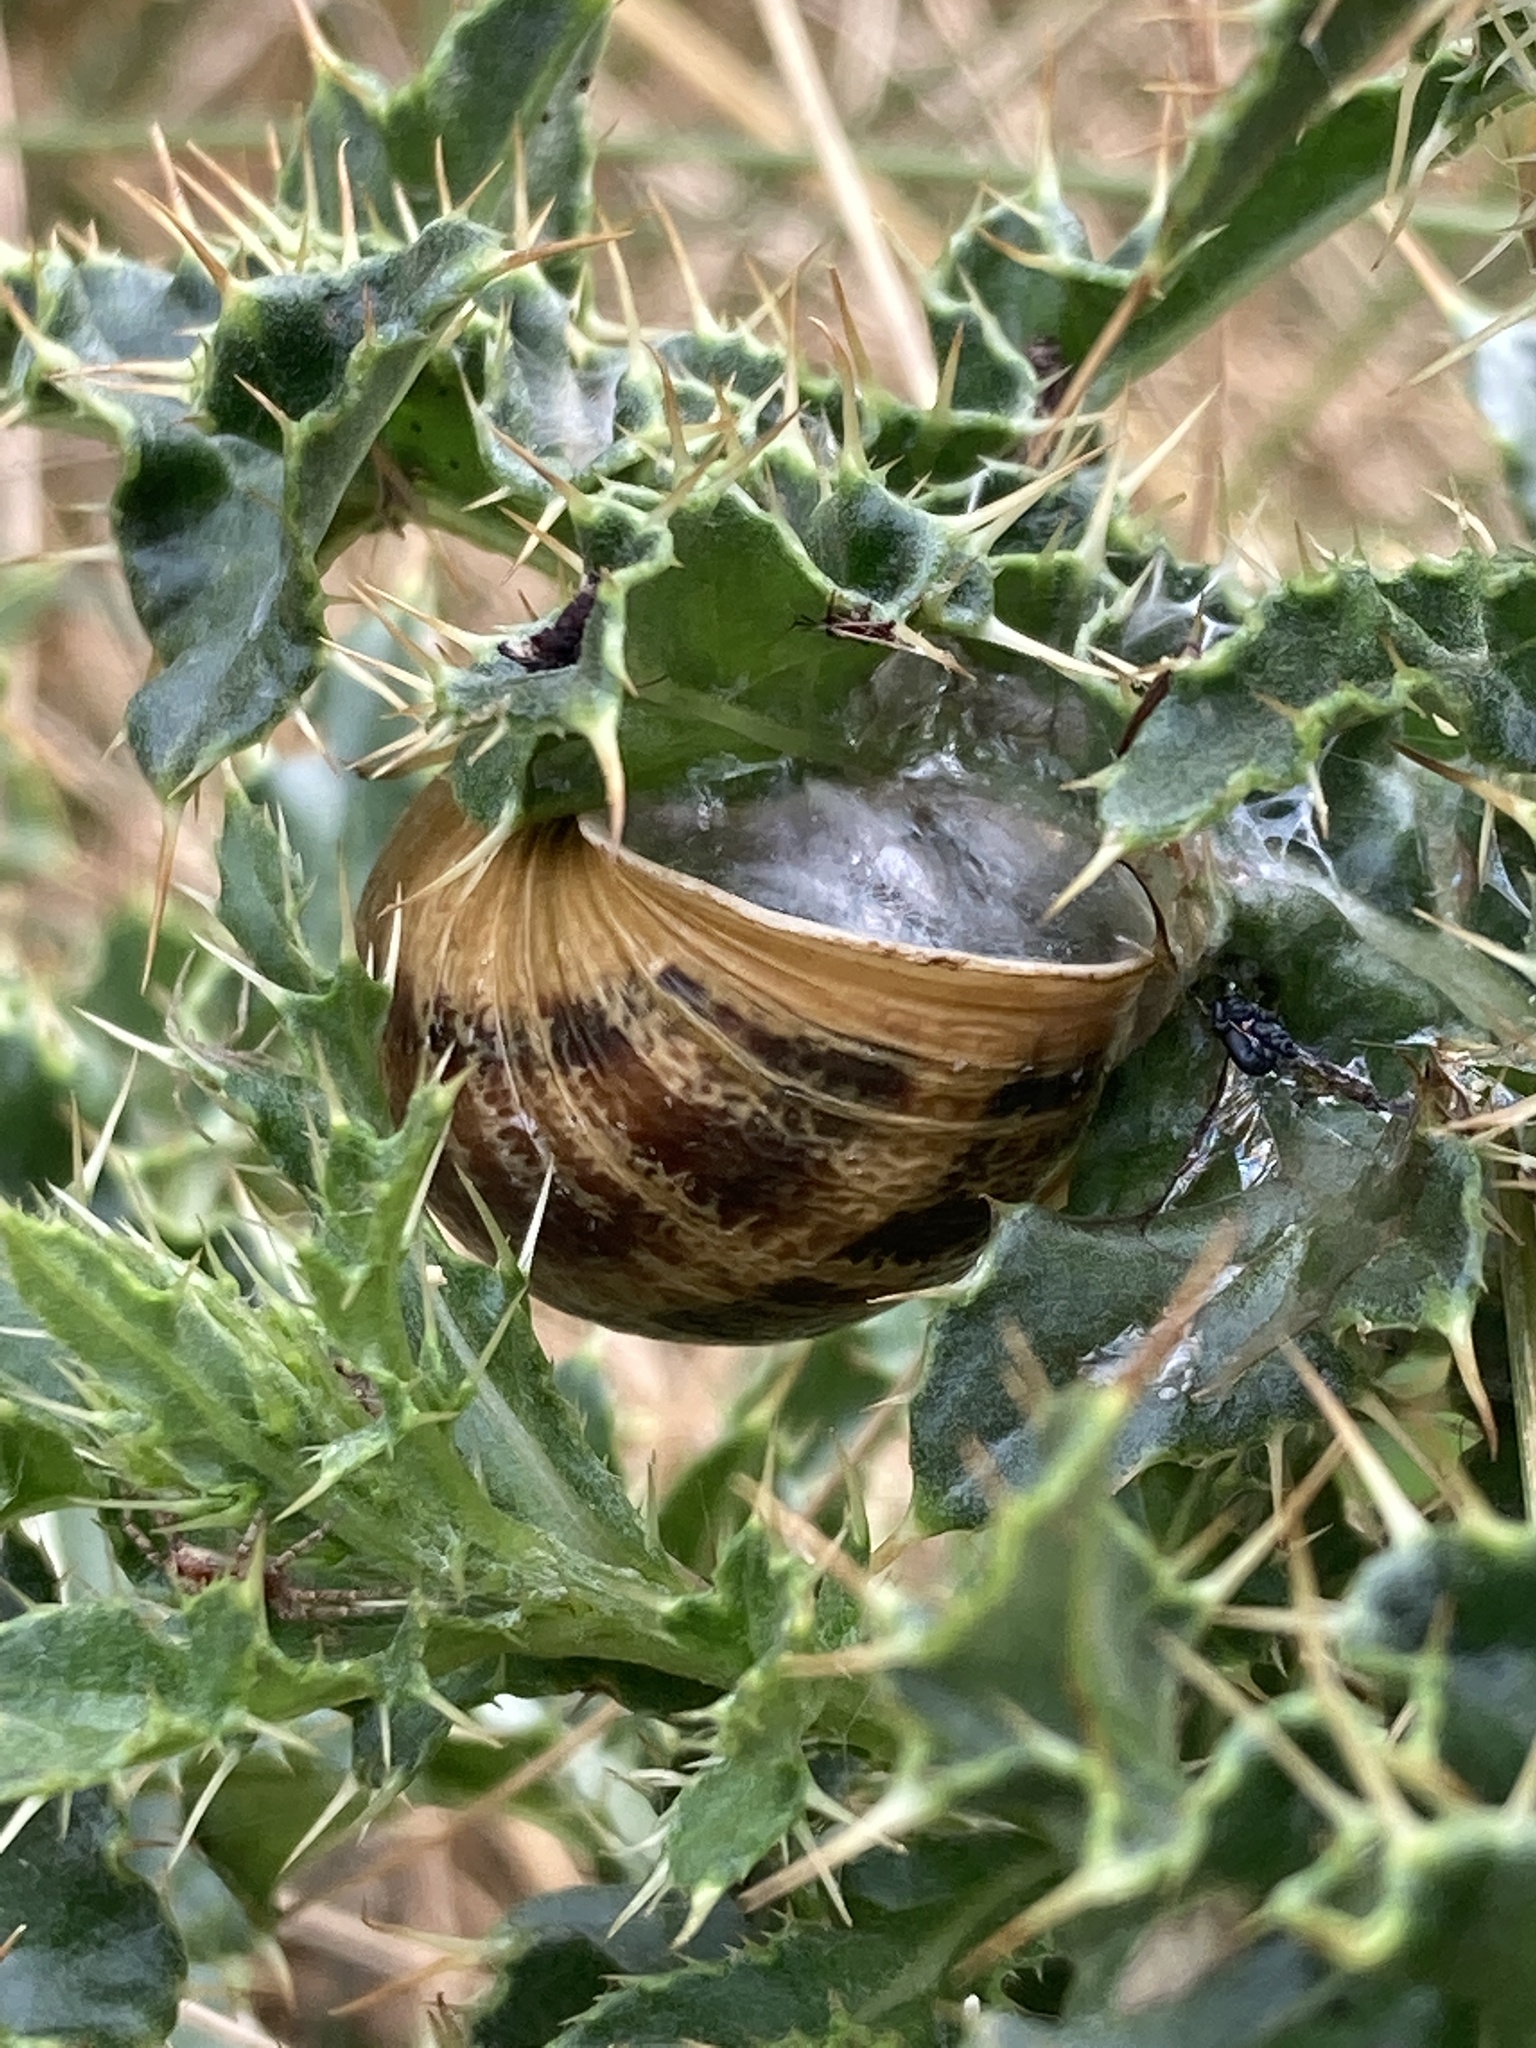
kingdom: Animalia
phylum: Mollusca
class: Gastropoda
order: Stylommatophora
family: Helicidae
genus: Cornu
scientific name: Cornu aspersum
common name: Brown garden snail
